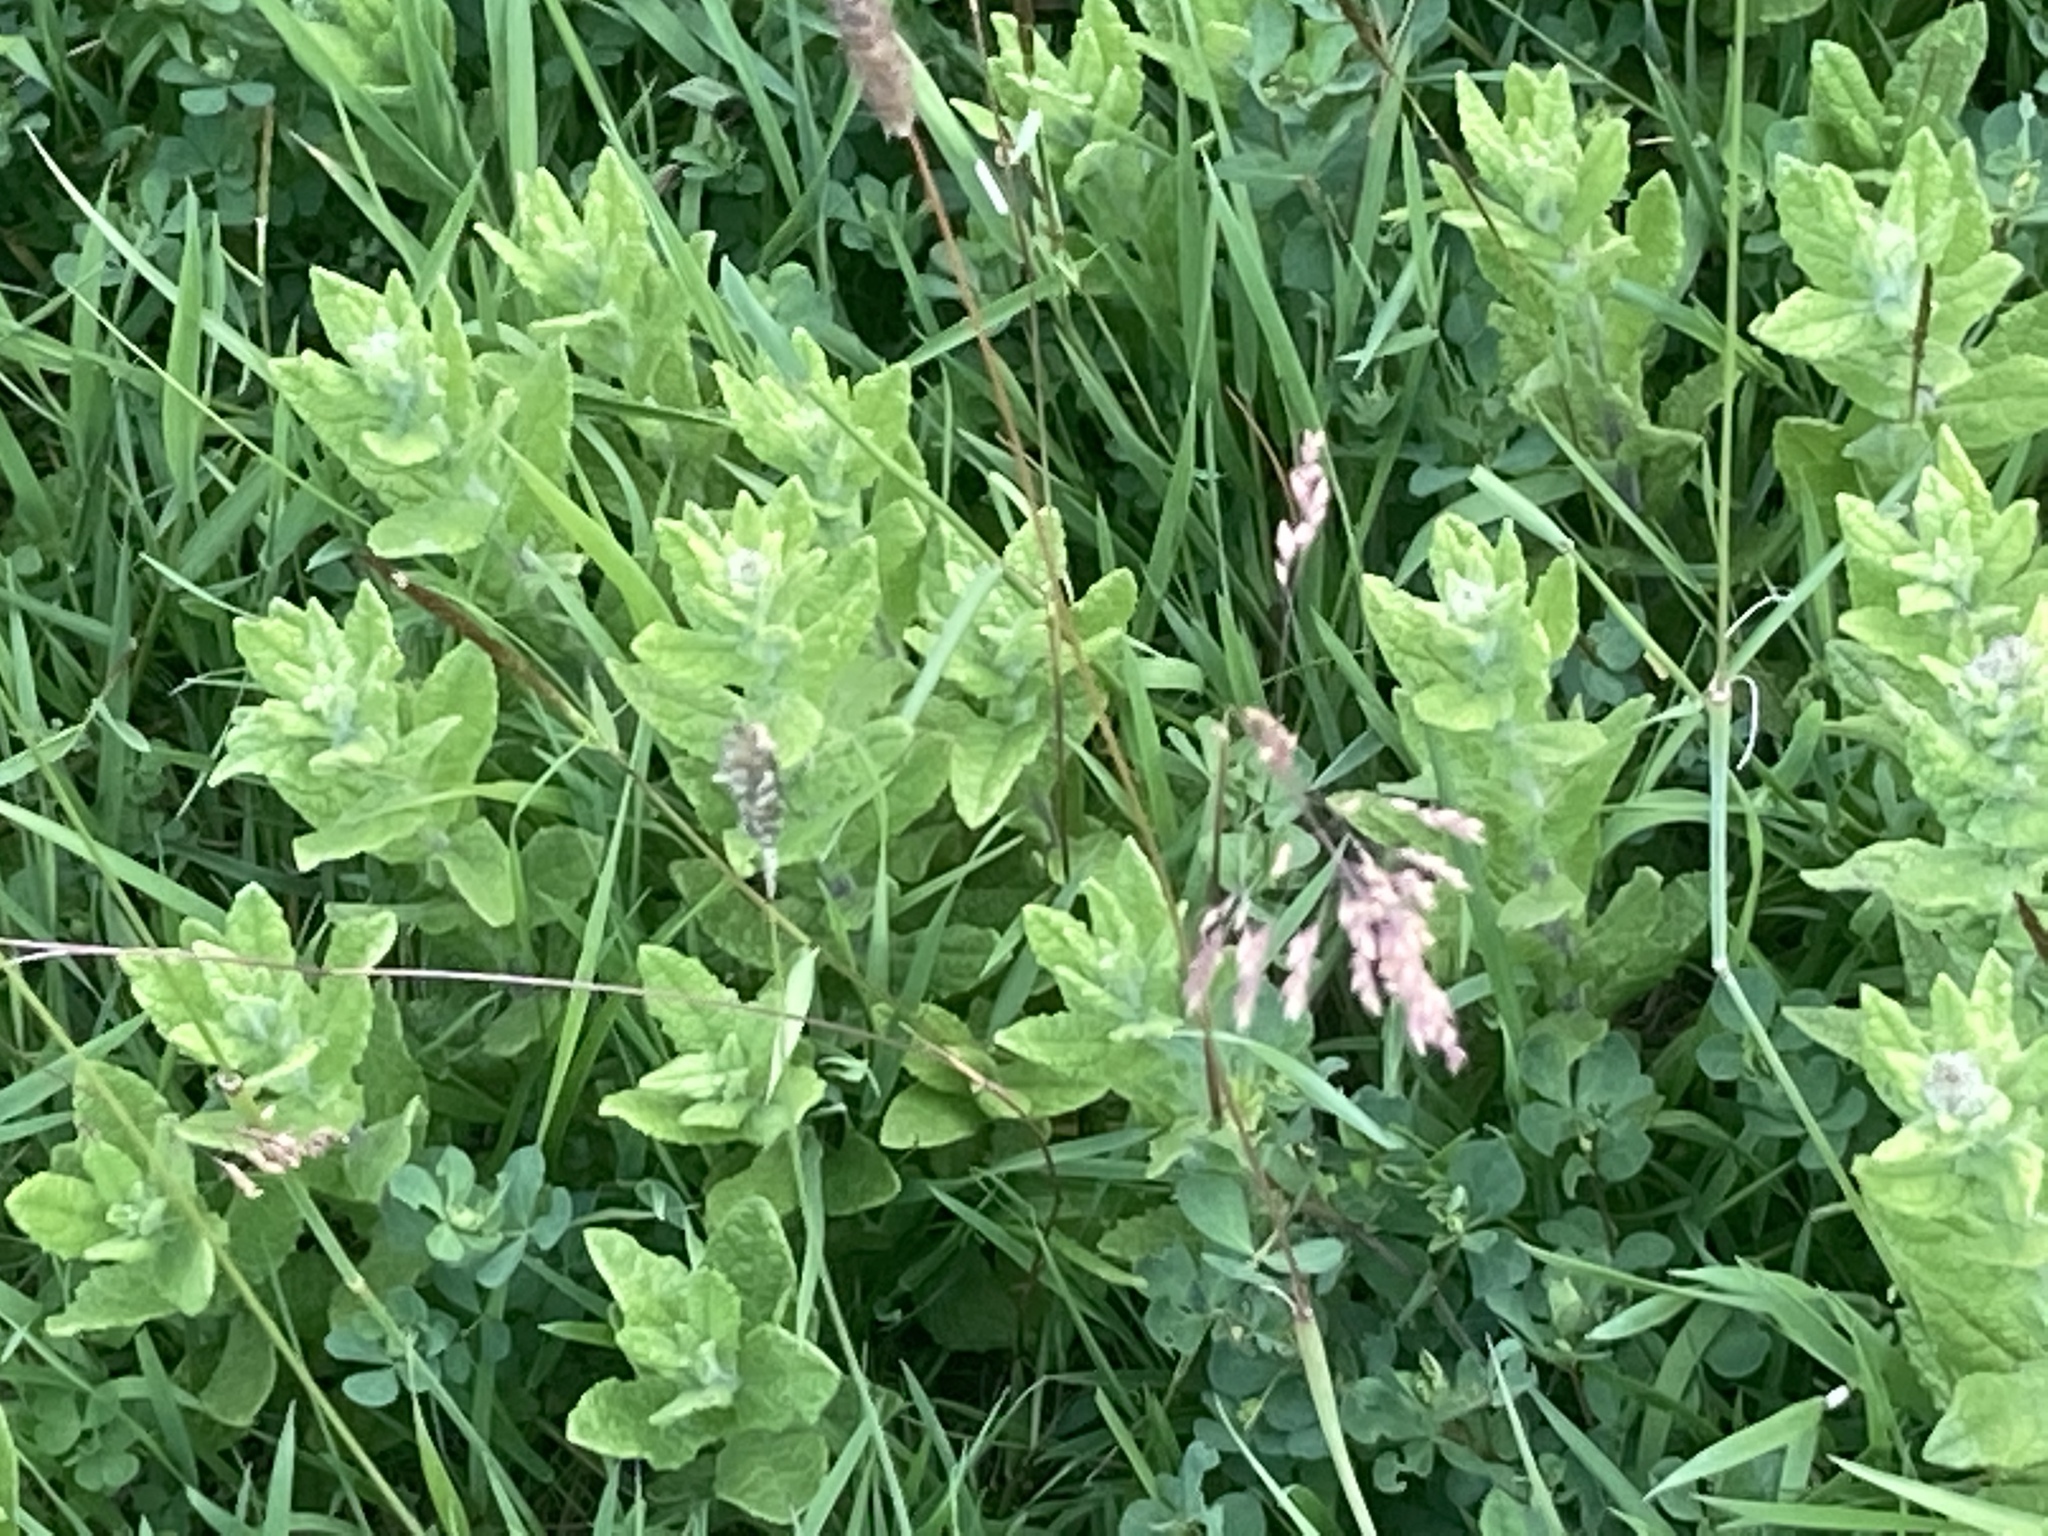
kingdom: Plantae
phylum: Tracheophyta
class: Magnoliopsida
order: Asterales
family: Asteraceae
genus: Pulicaria
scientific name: Pulicaria dysenterica
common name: Common fleabane
